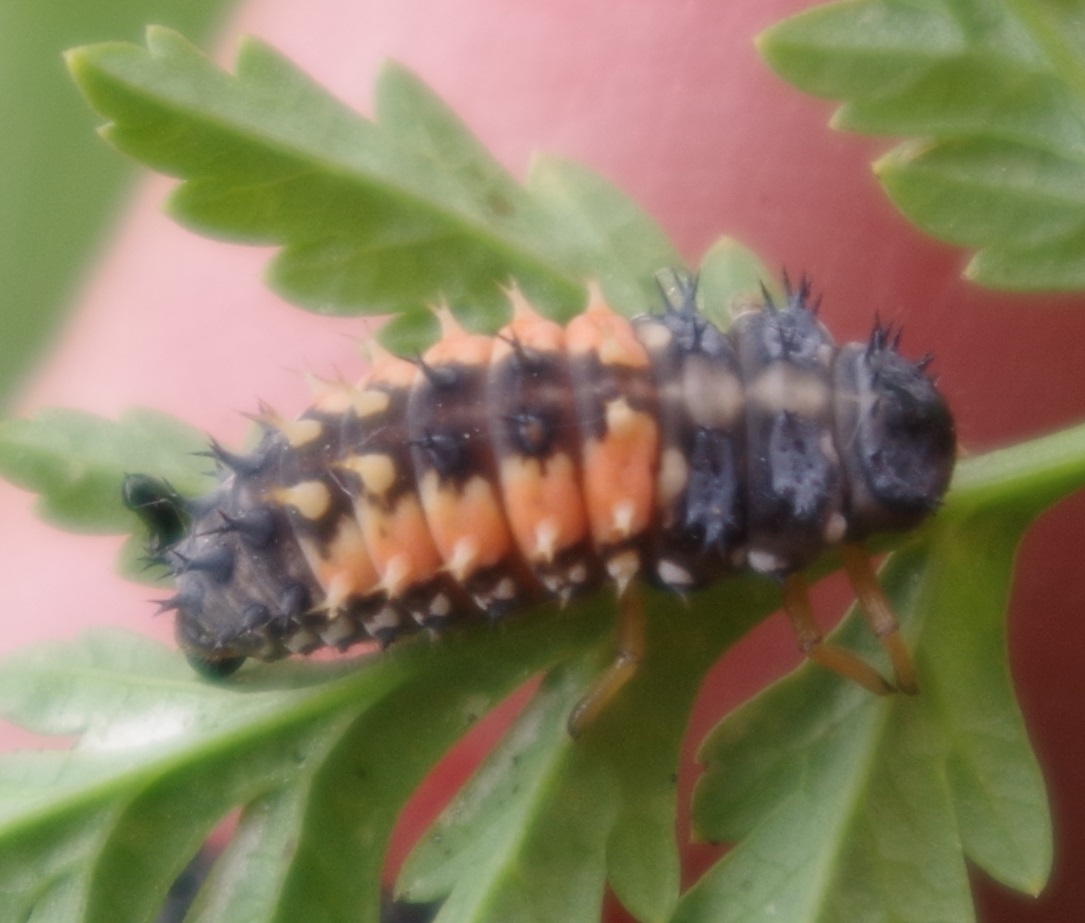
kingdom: Animalia
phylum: Arthropoda
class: Insecta
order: Coleoptera
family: Coccinellidae
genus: Harmonia
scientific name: Harmonia axyridis
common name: Harlequin ladybird
